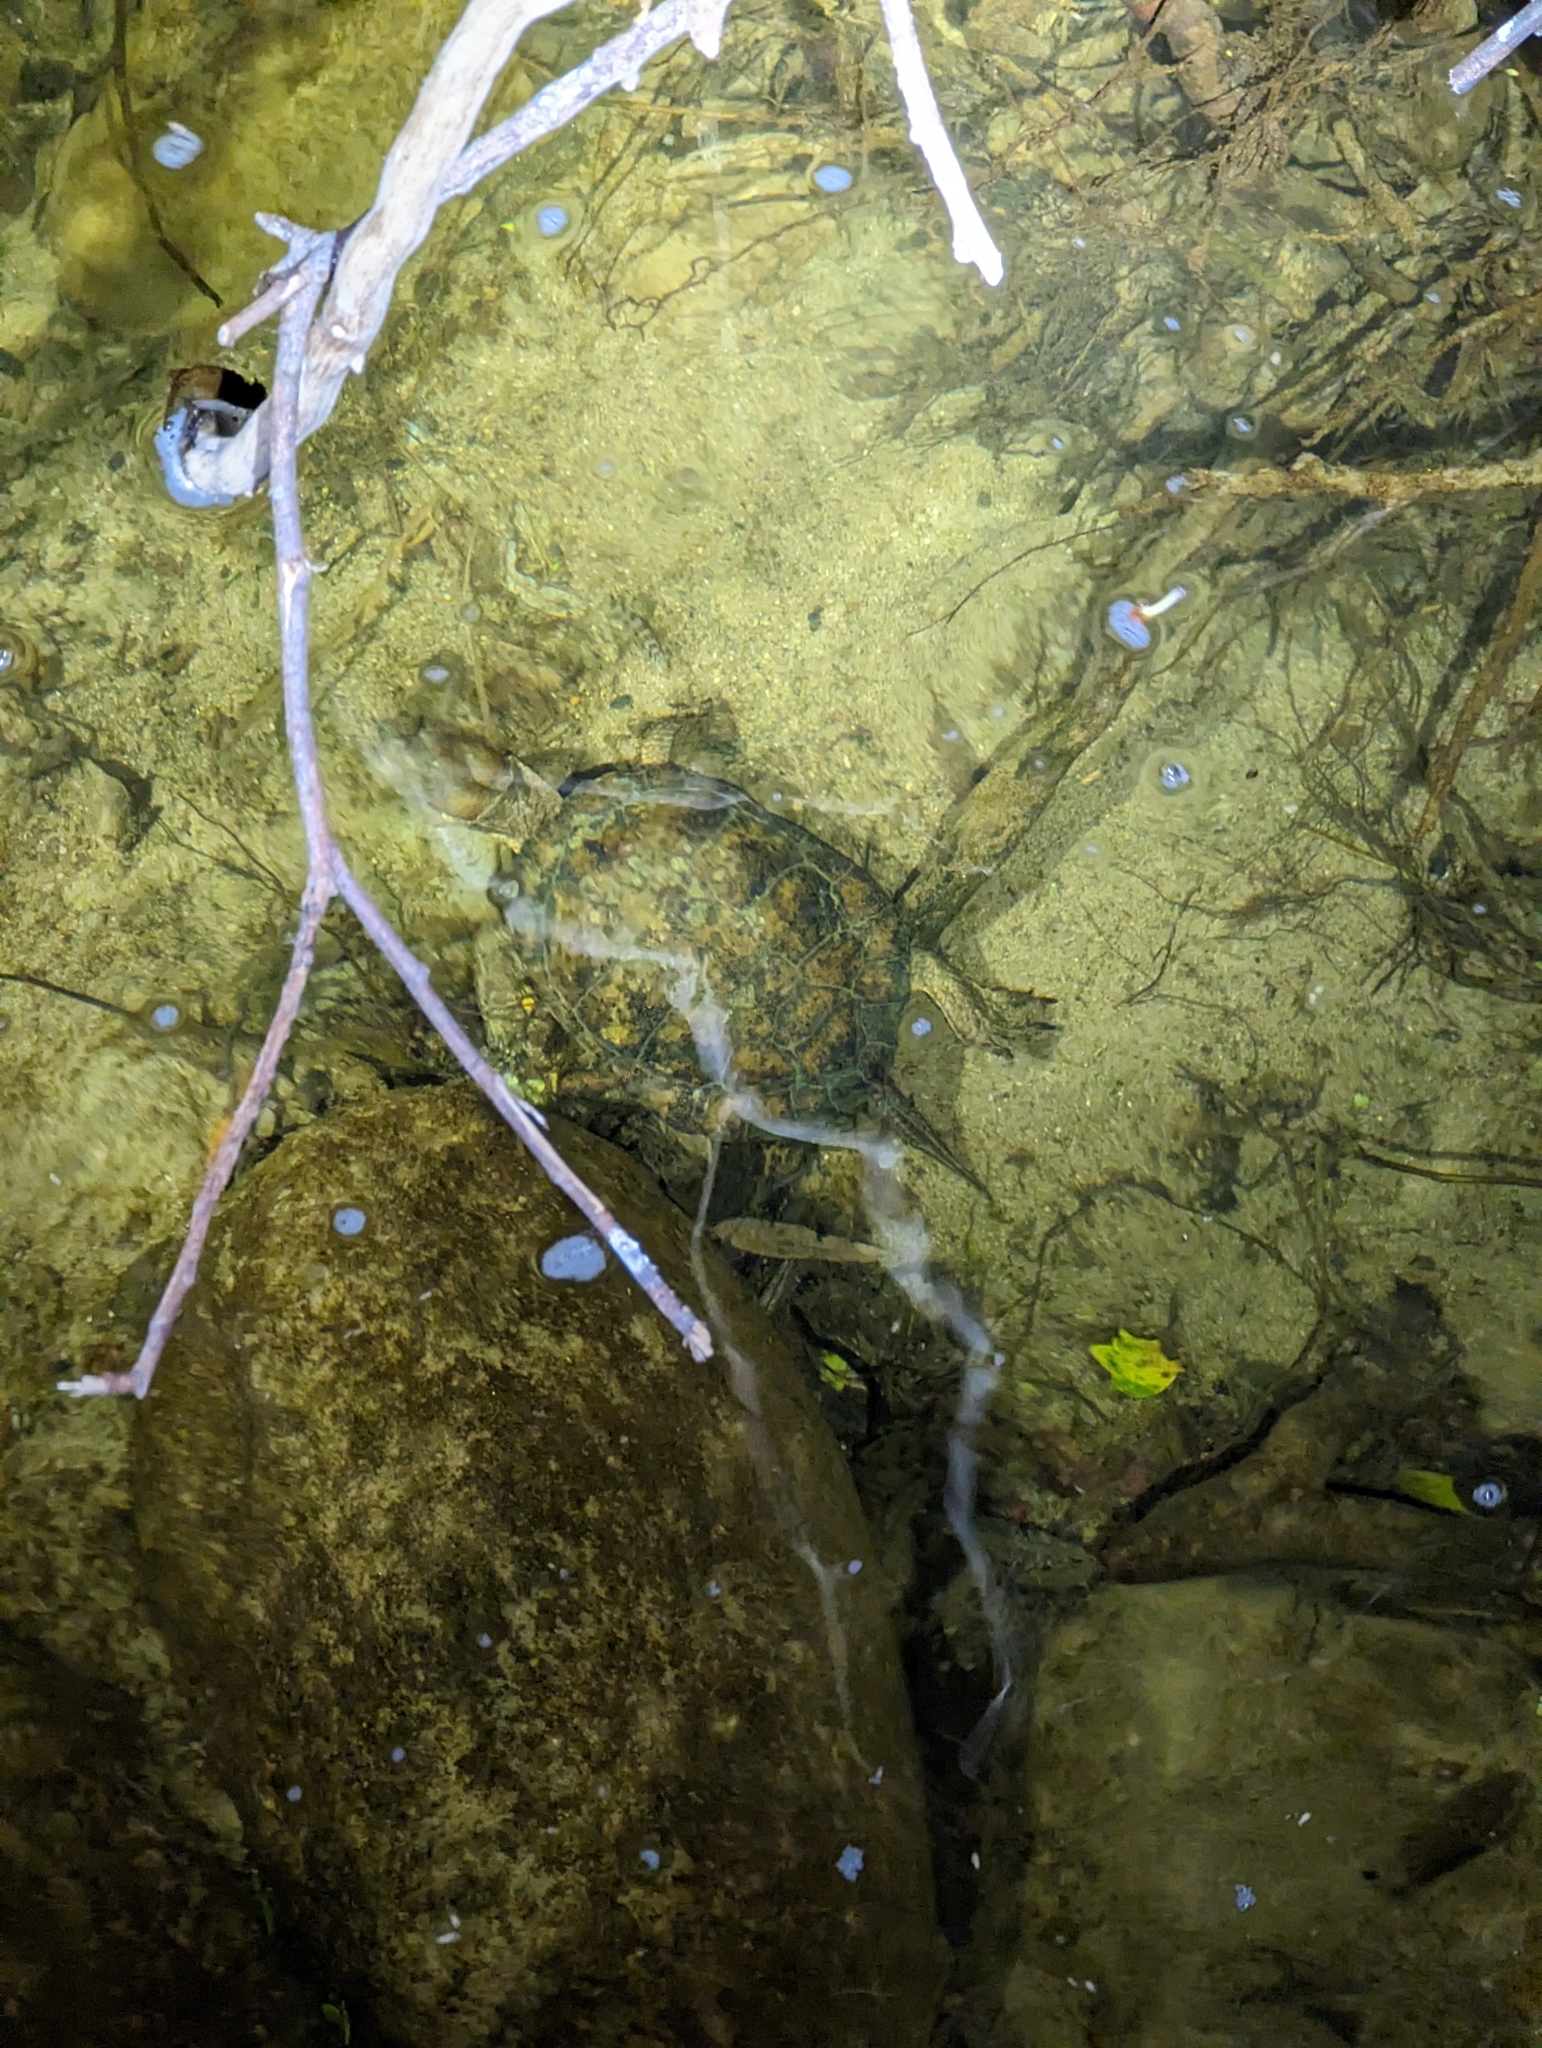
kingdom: Animalia
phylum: Chordata
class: Testudines
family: Emydidae
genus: Actinemys
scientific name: Actinemys pallida
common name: Southern pacific pond turtle
